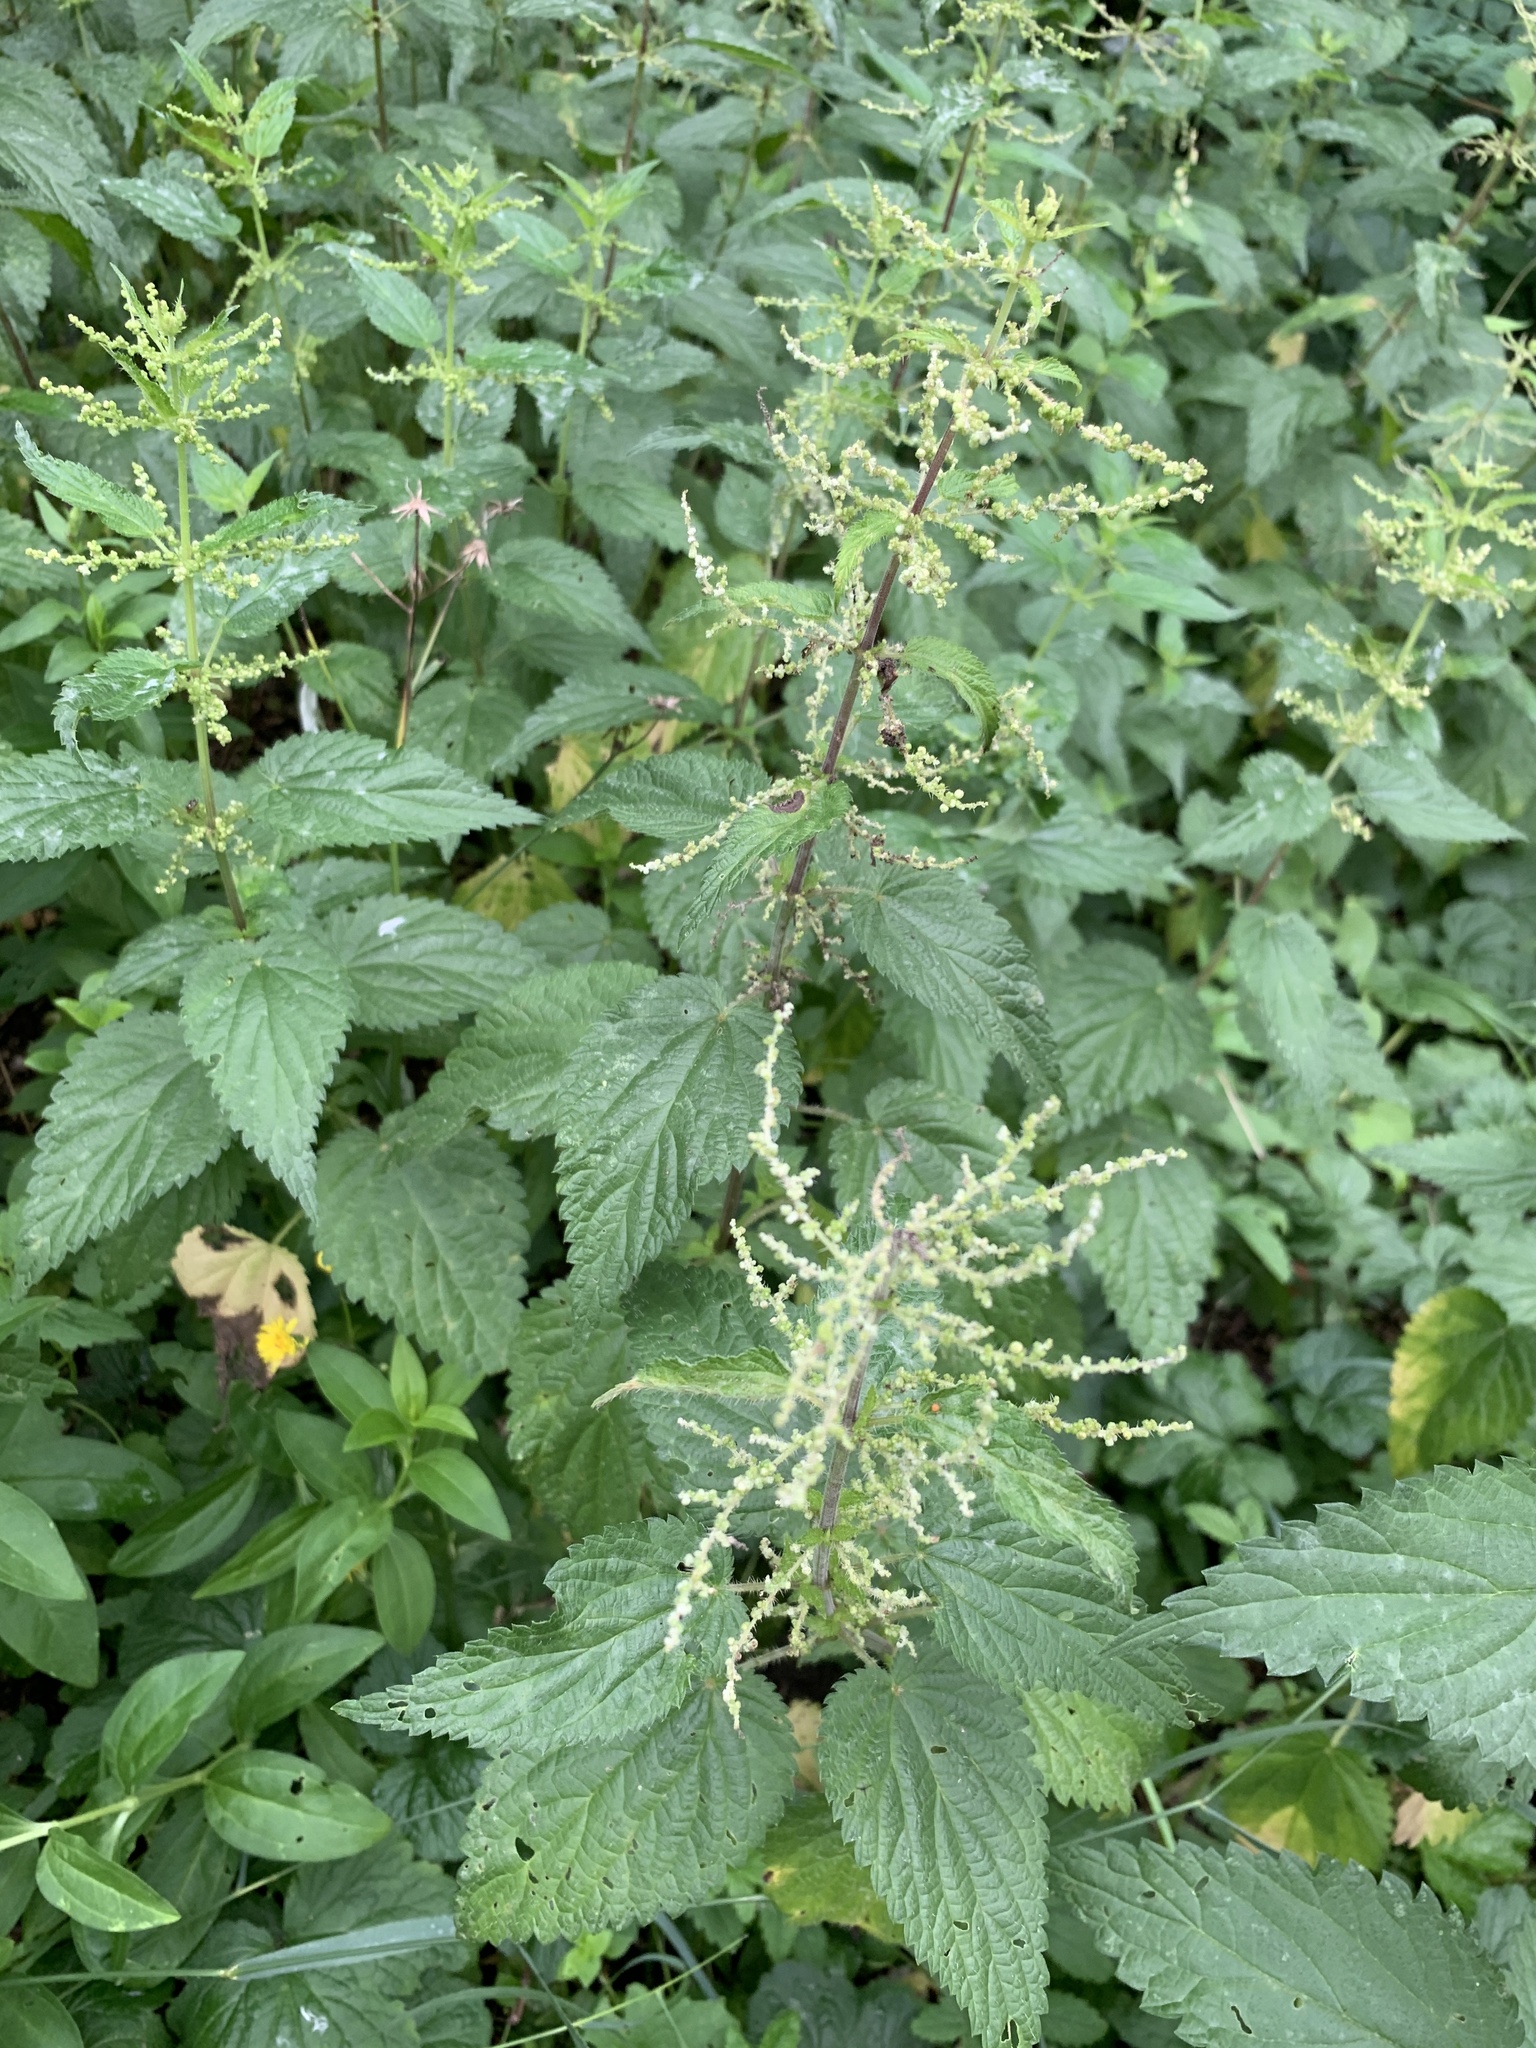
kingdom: Plantae
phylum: Tracheophyta
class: Magnoliopsida
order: Rosales
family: Urticaceae
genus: Urtica
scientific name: Urtica dioica
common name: Common nettle
